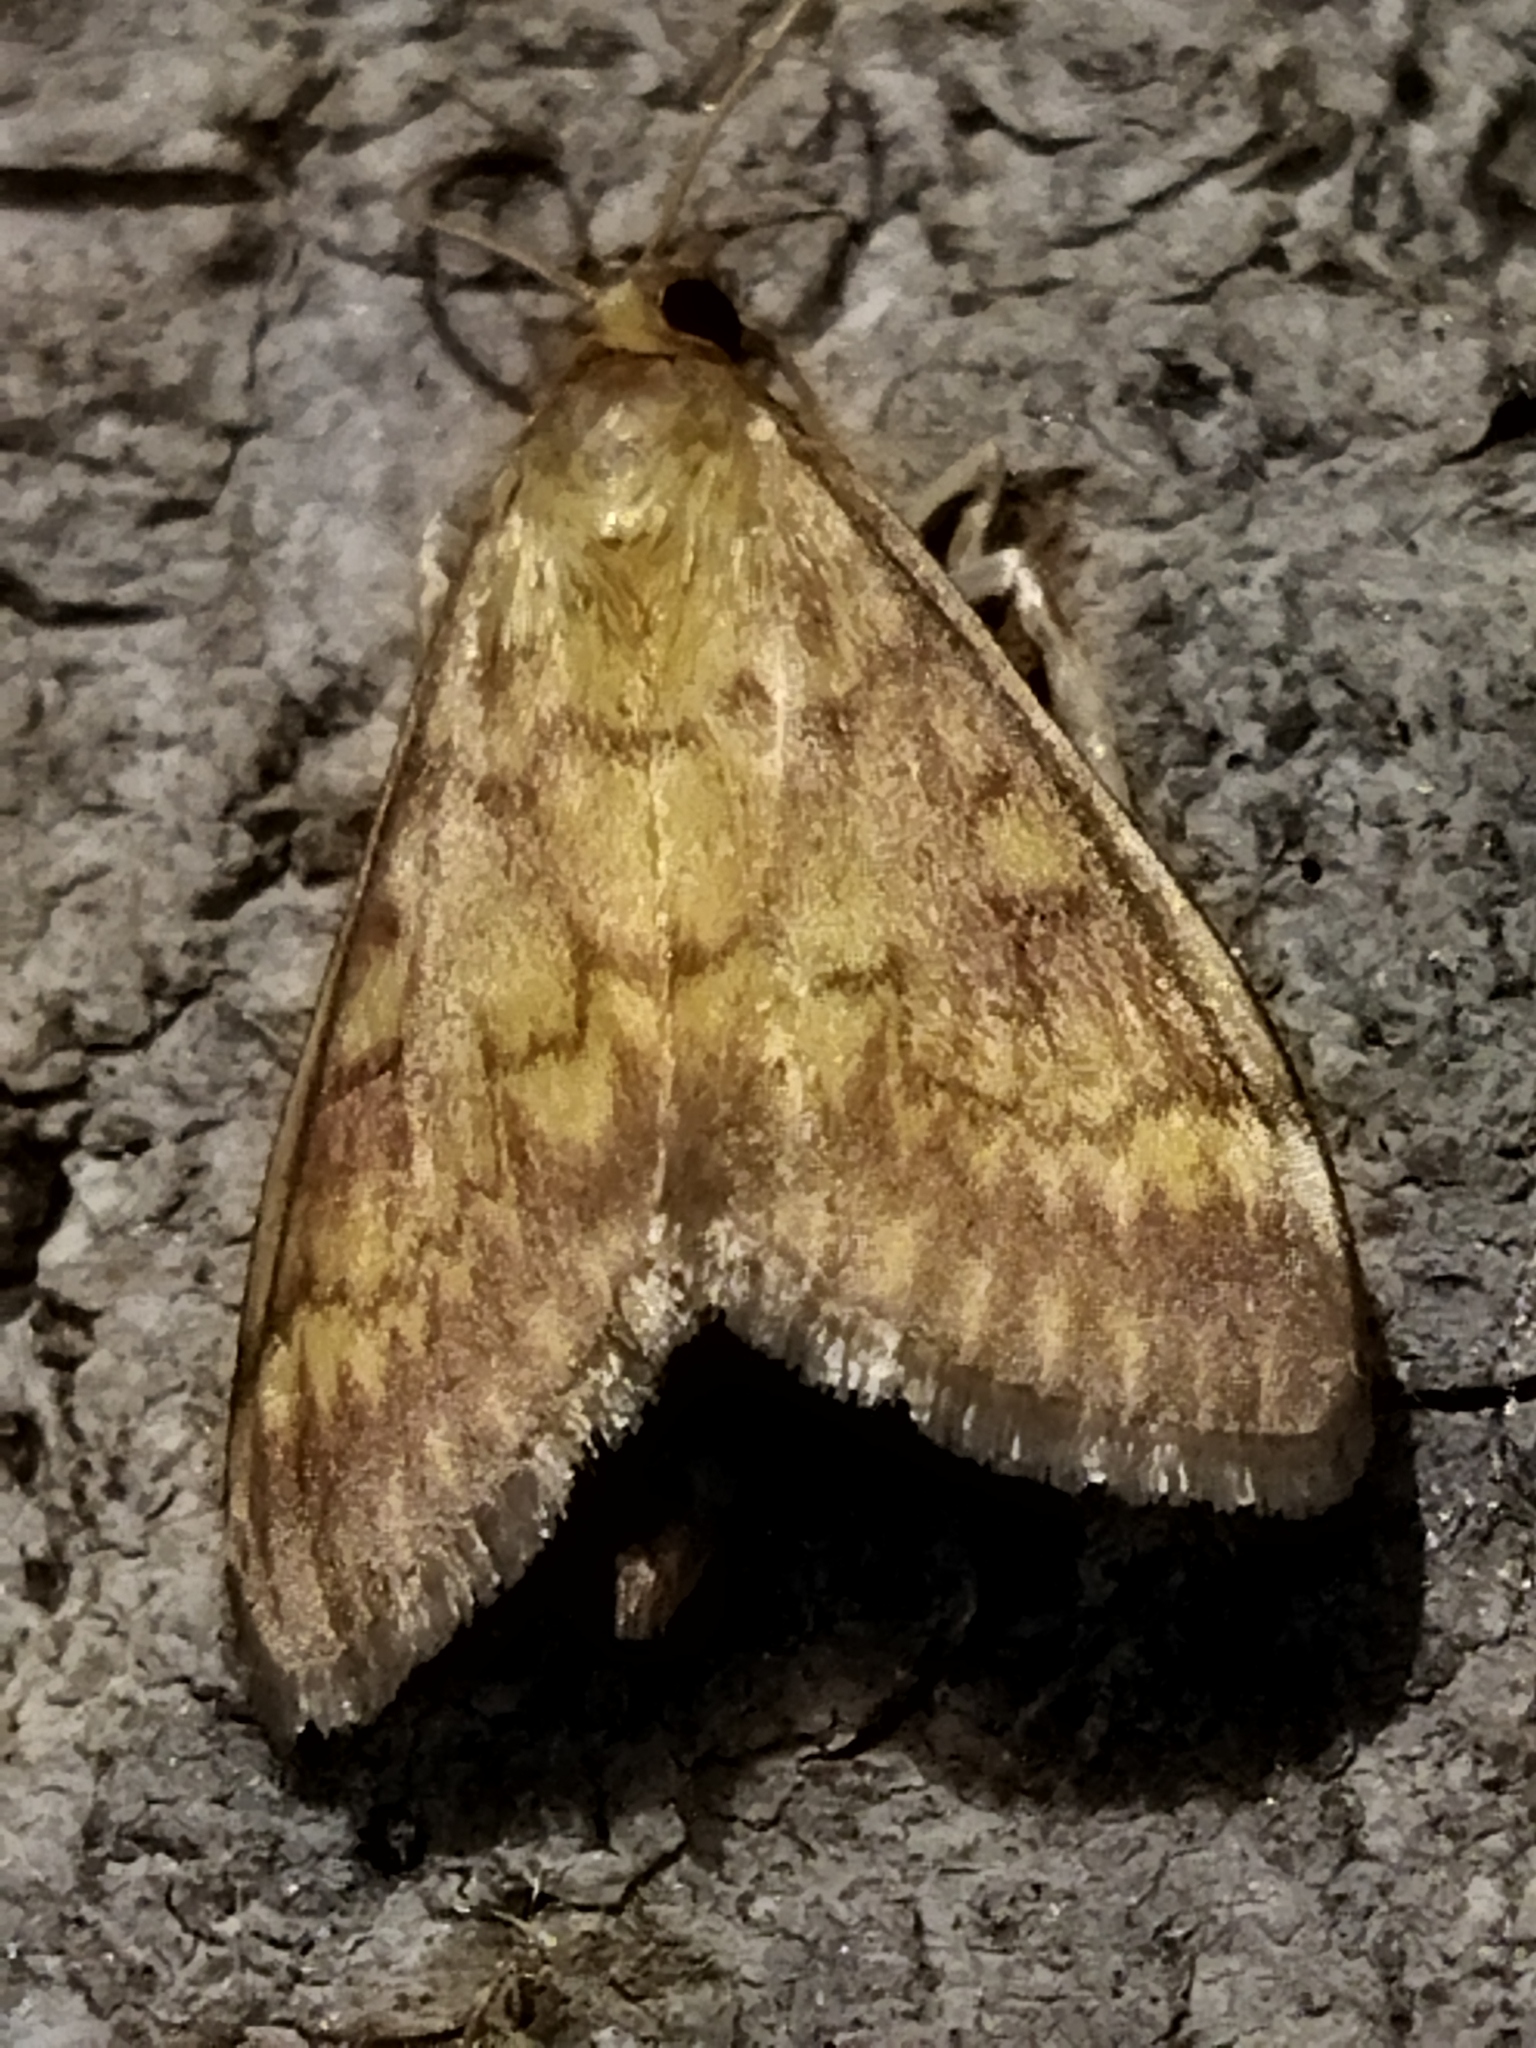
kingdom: Animalia
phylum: Arthropoda
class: Insecta
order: Lepidoptera
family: Crambidae
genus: Ostrinia
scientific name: Ostrinia nubilalis
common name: European corn borer
